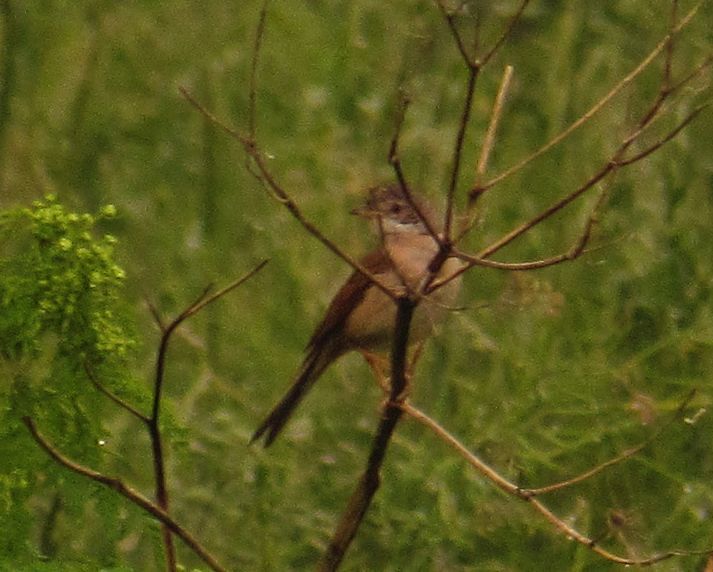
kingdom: Animalia
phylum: Chordata
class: Aves
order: Passeriformes
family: Sylviidae
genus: Sylvia
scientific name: Sylvia communis
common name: Common whitethroat
